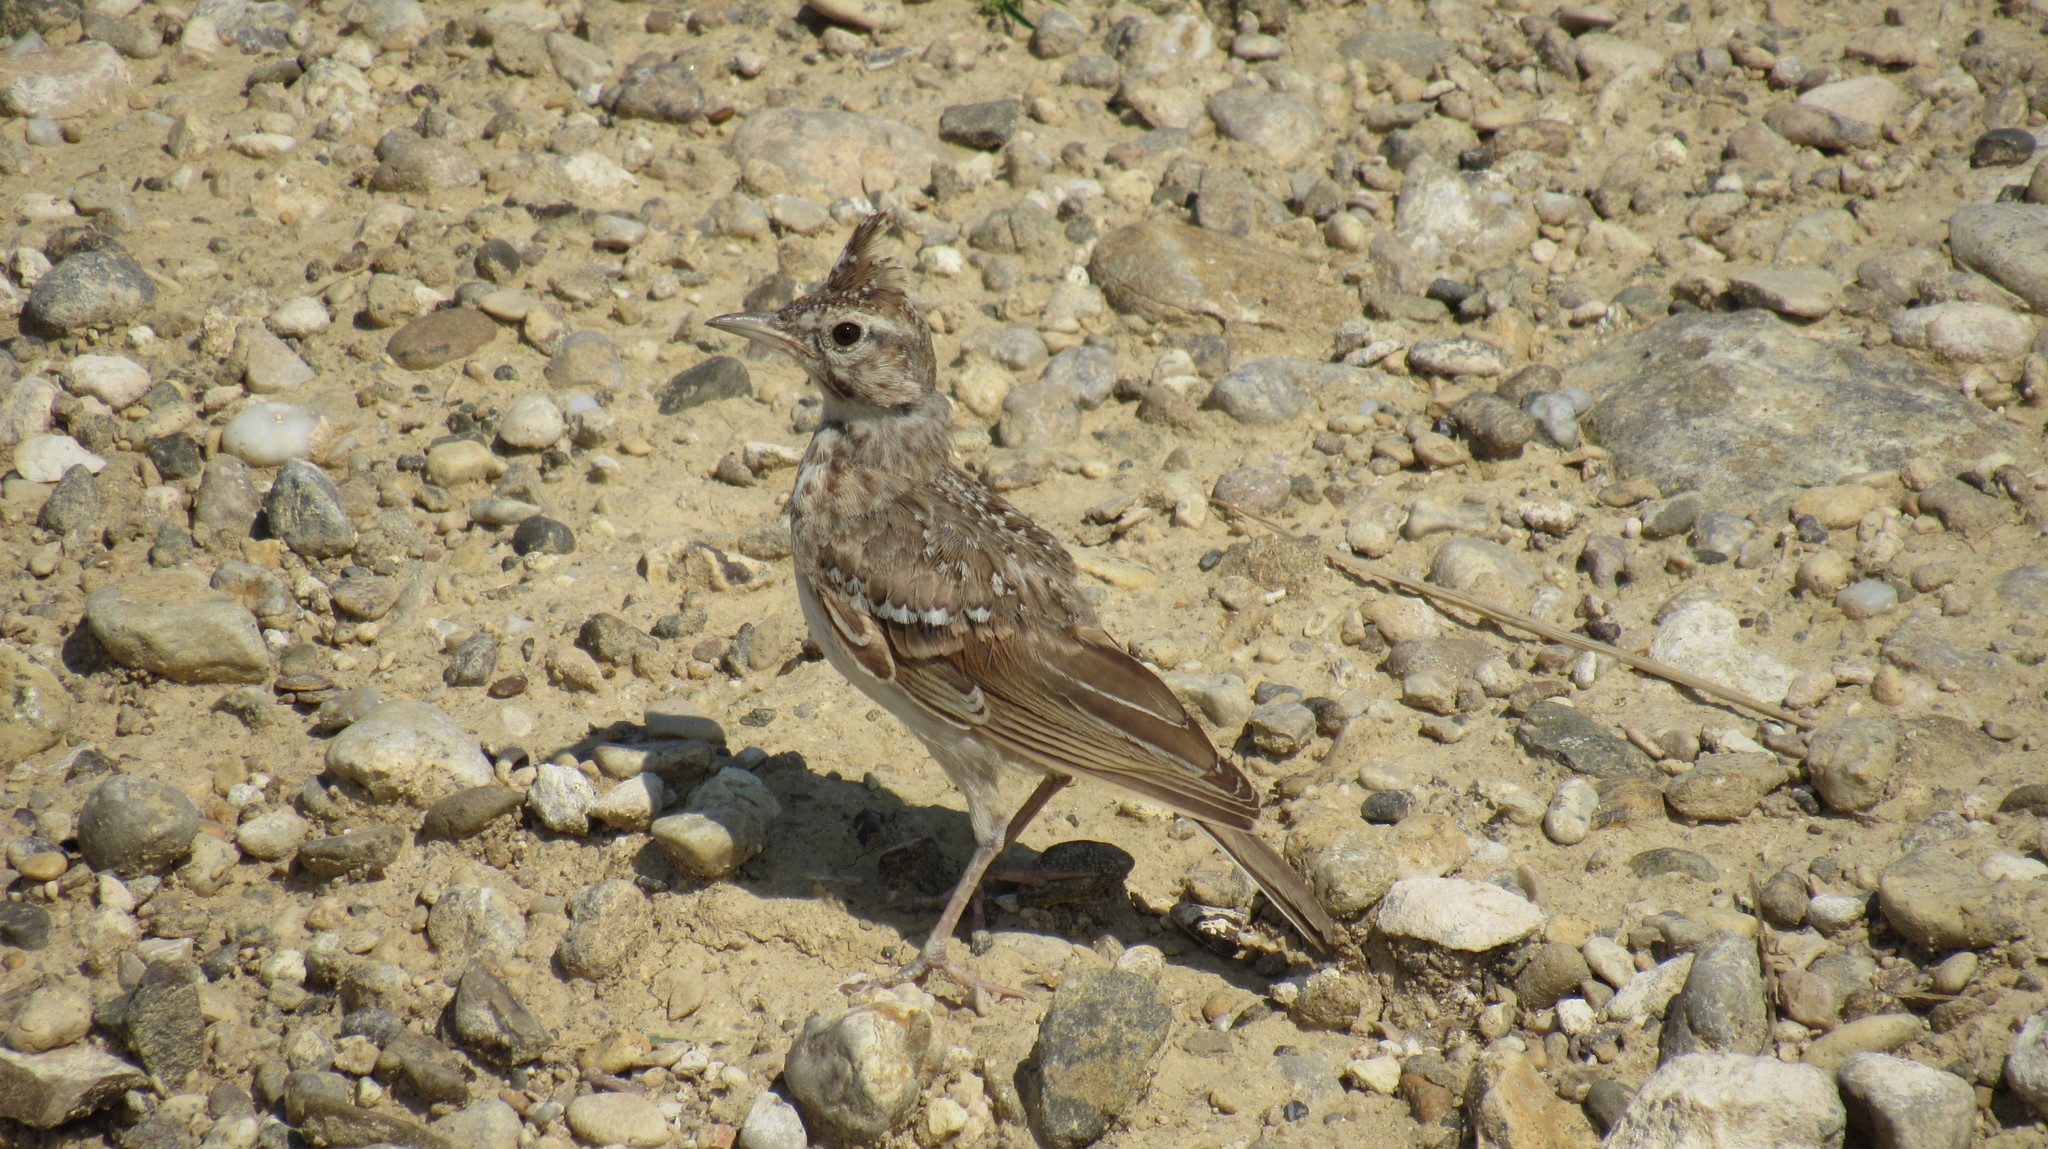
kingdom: Animalia
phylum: Chordata
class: Aves
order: Passeriformes
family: Alaudidae
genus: Galerida
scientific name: Galerida cristata
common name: Crested lark
